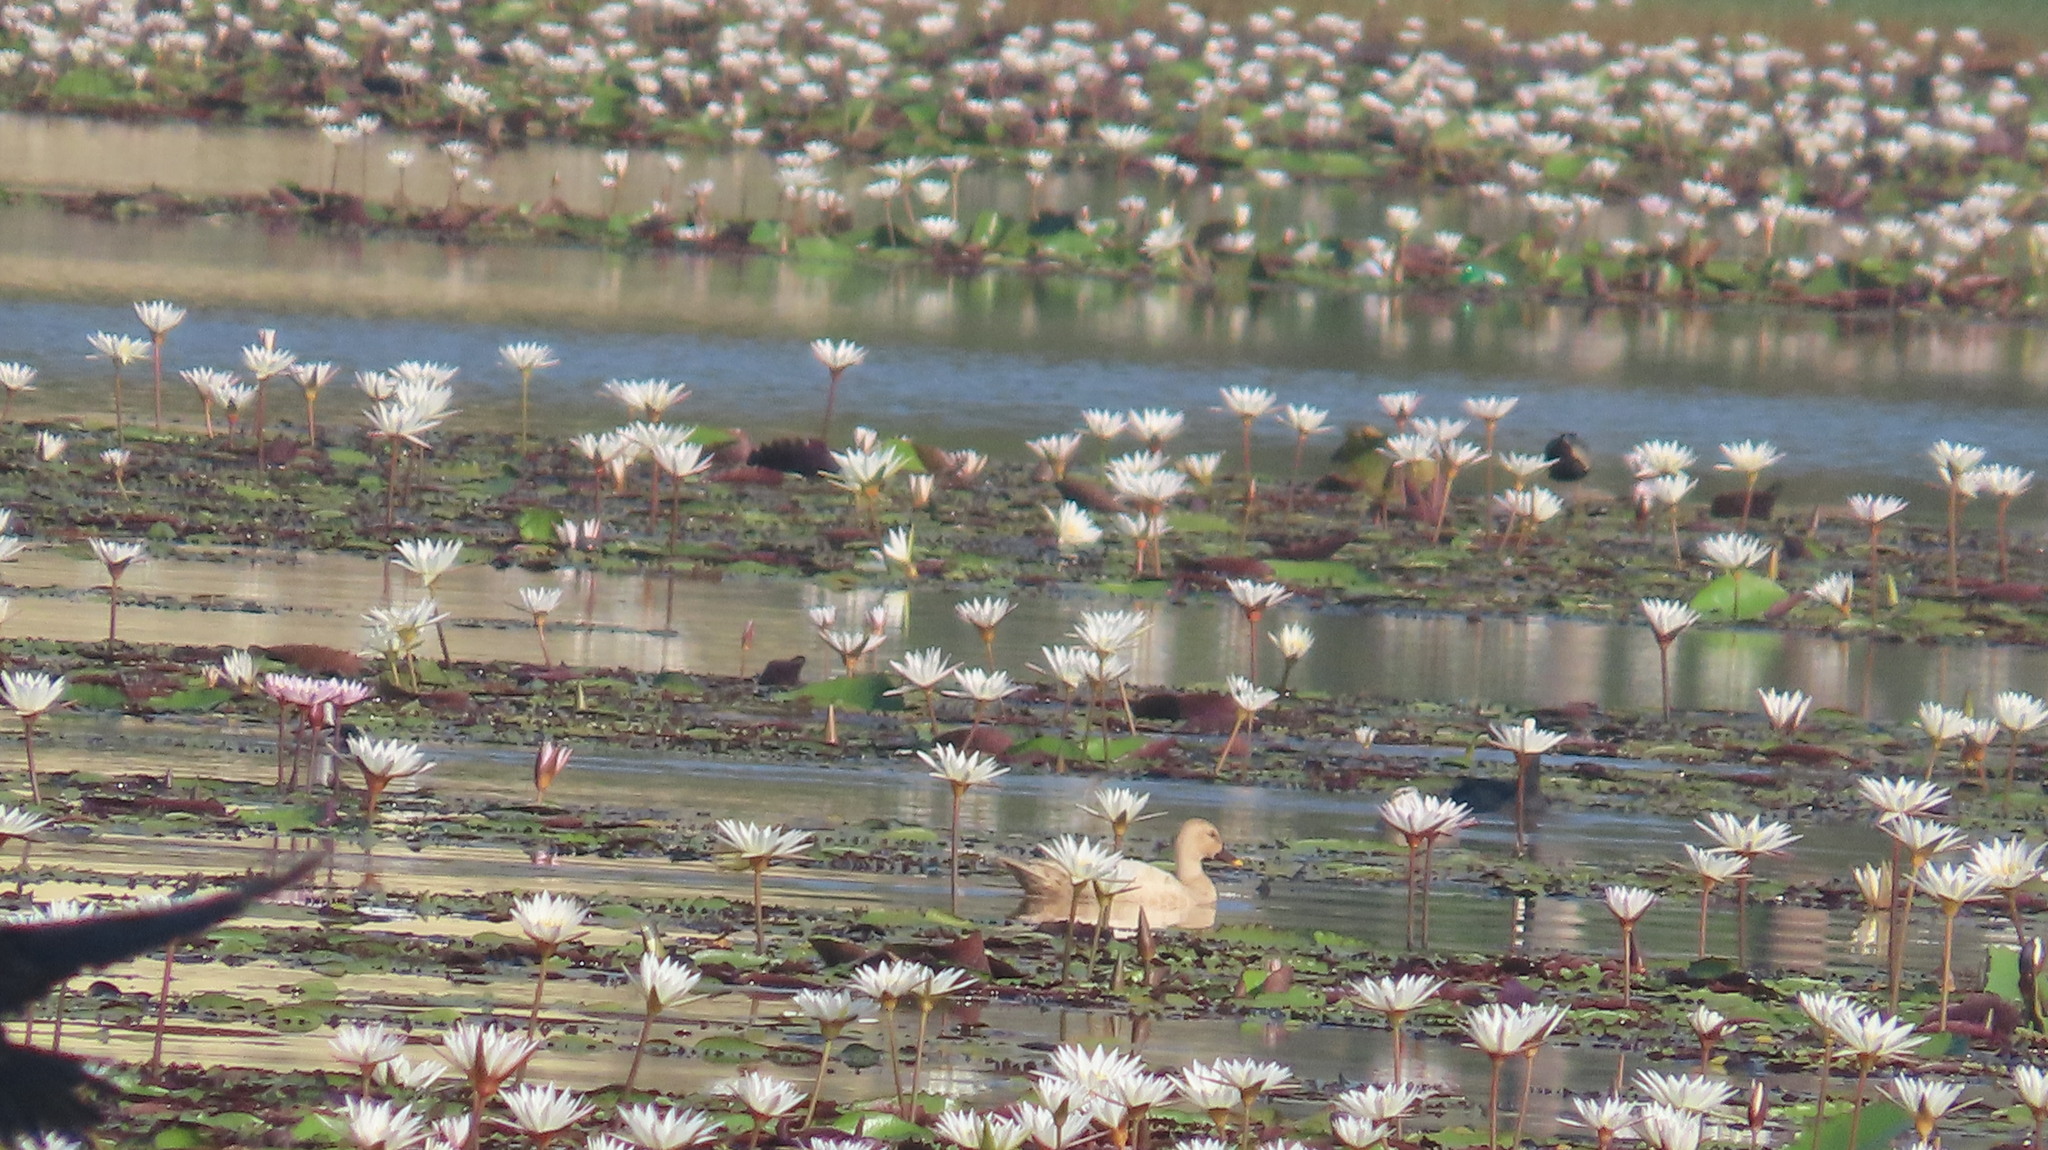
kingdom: Animalia
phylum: Chordata
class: Aves
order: Anseriformes
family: Anatidae
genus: Anas
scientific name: Anas poecilorhyncha
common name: Indian spot-billed duck
